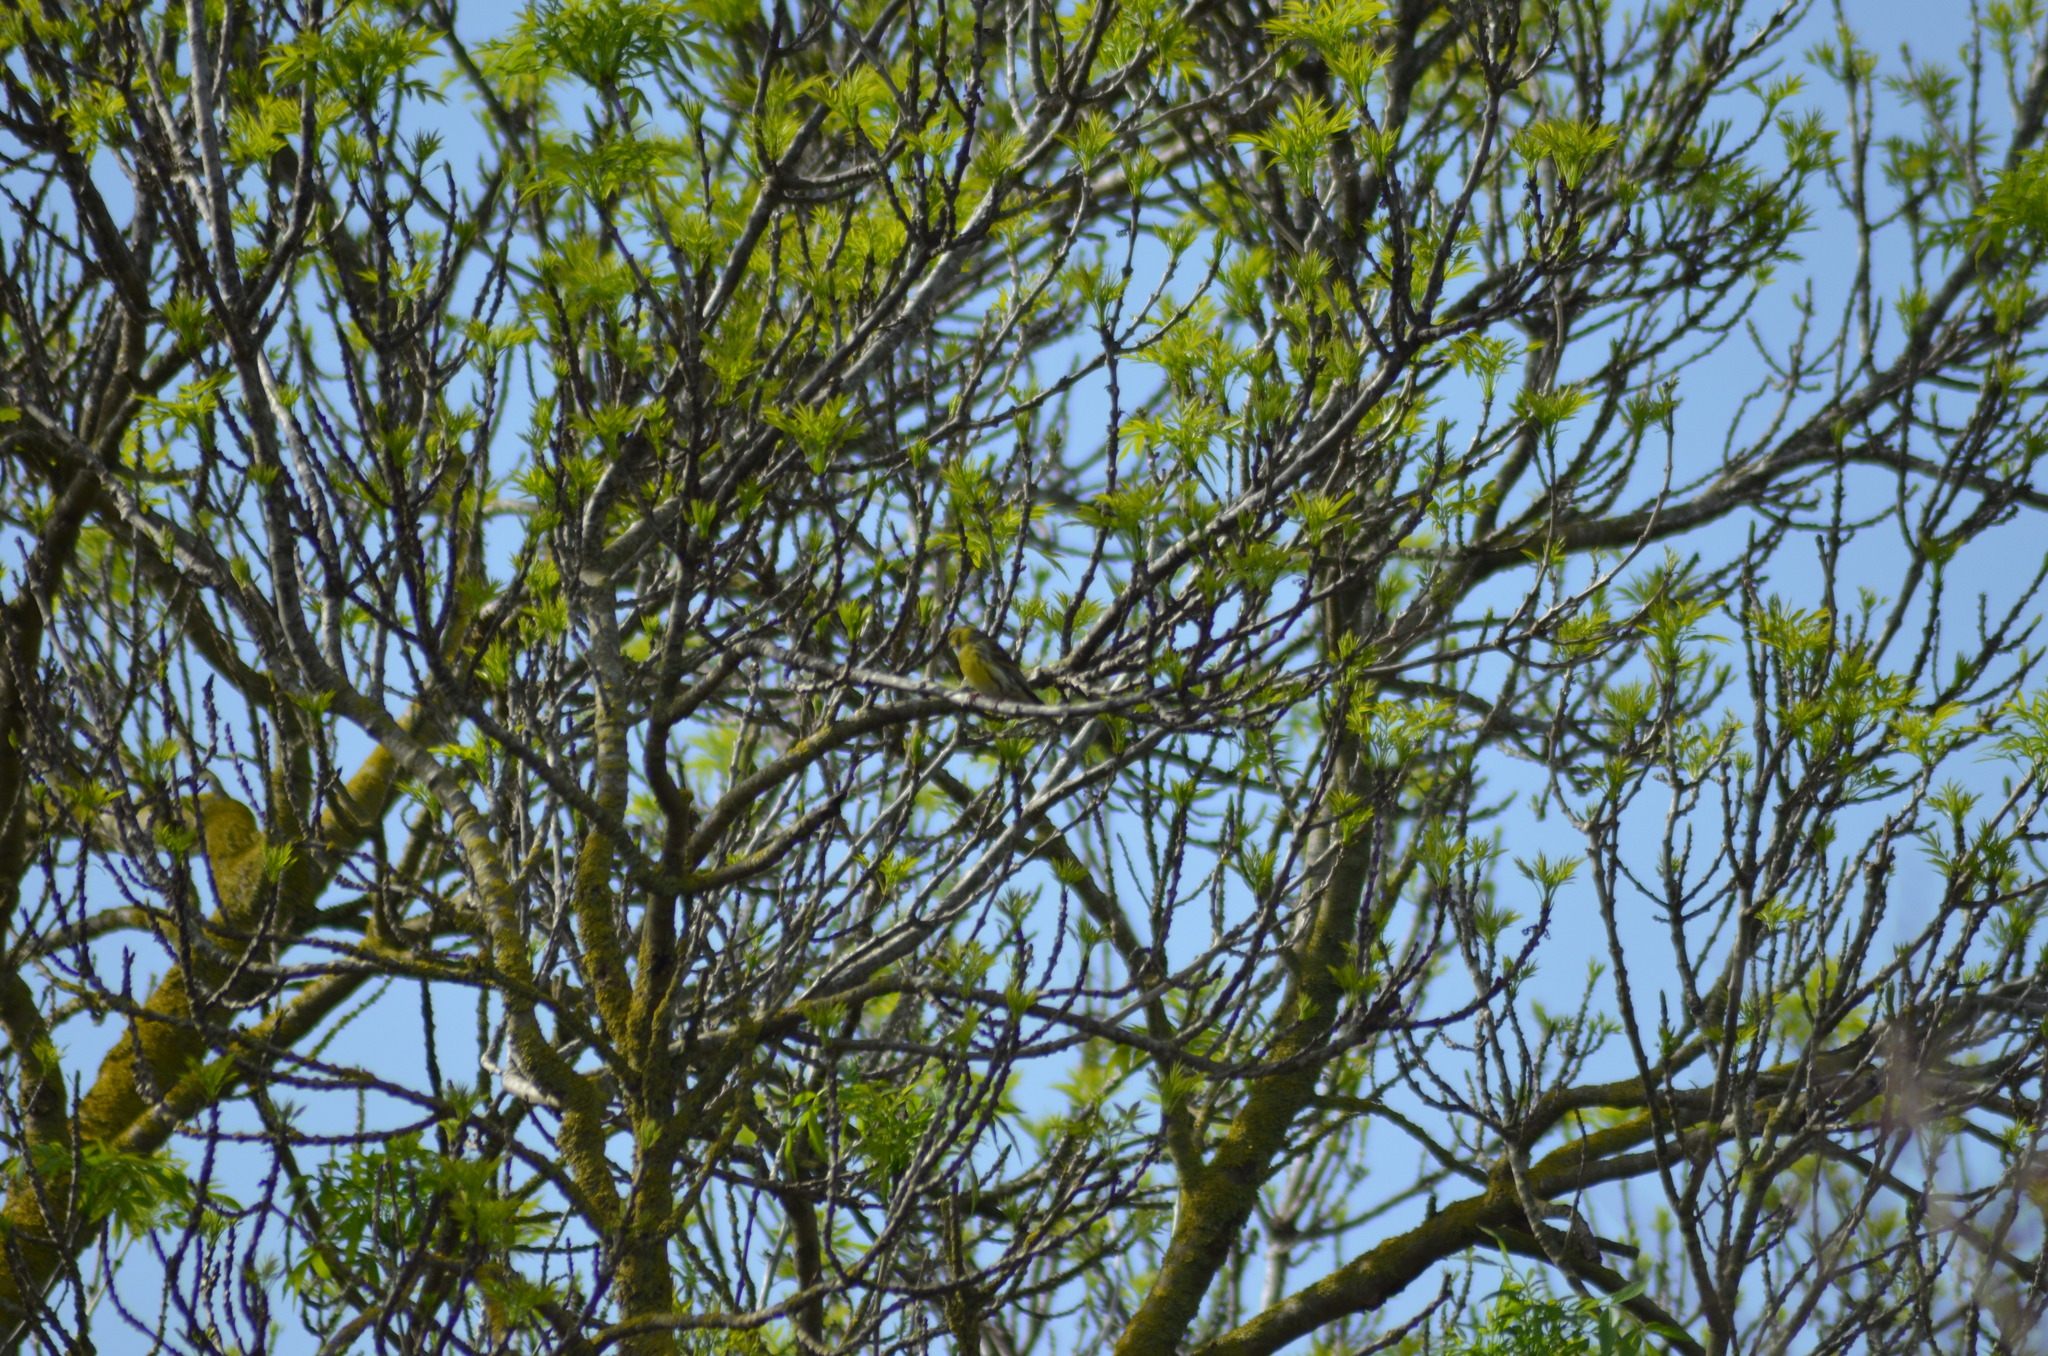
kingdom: Animalia
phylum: Chordata
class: Aves
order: Passeriformes
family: Fringillidae
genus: Serinus
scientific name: Serinus serinus
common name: European serin
